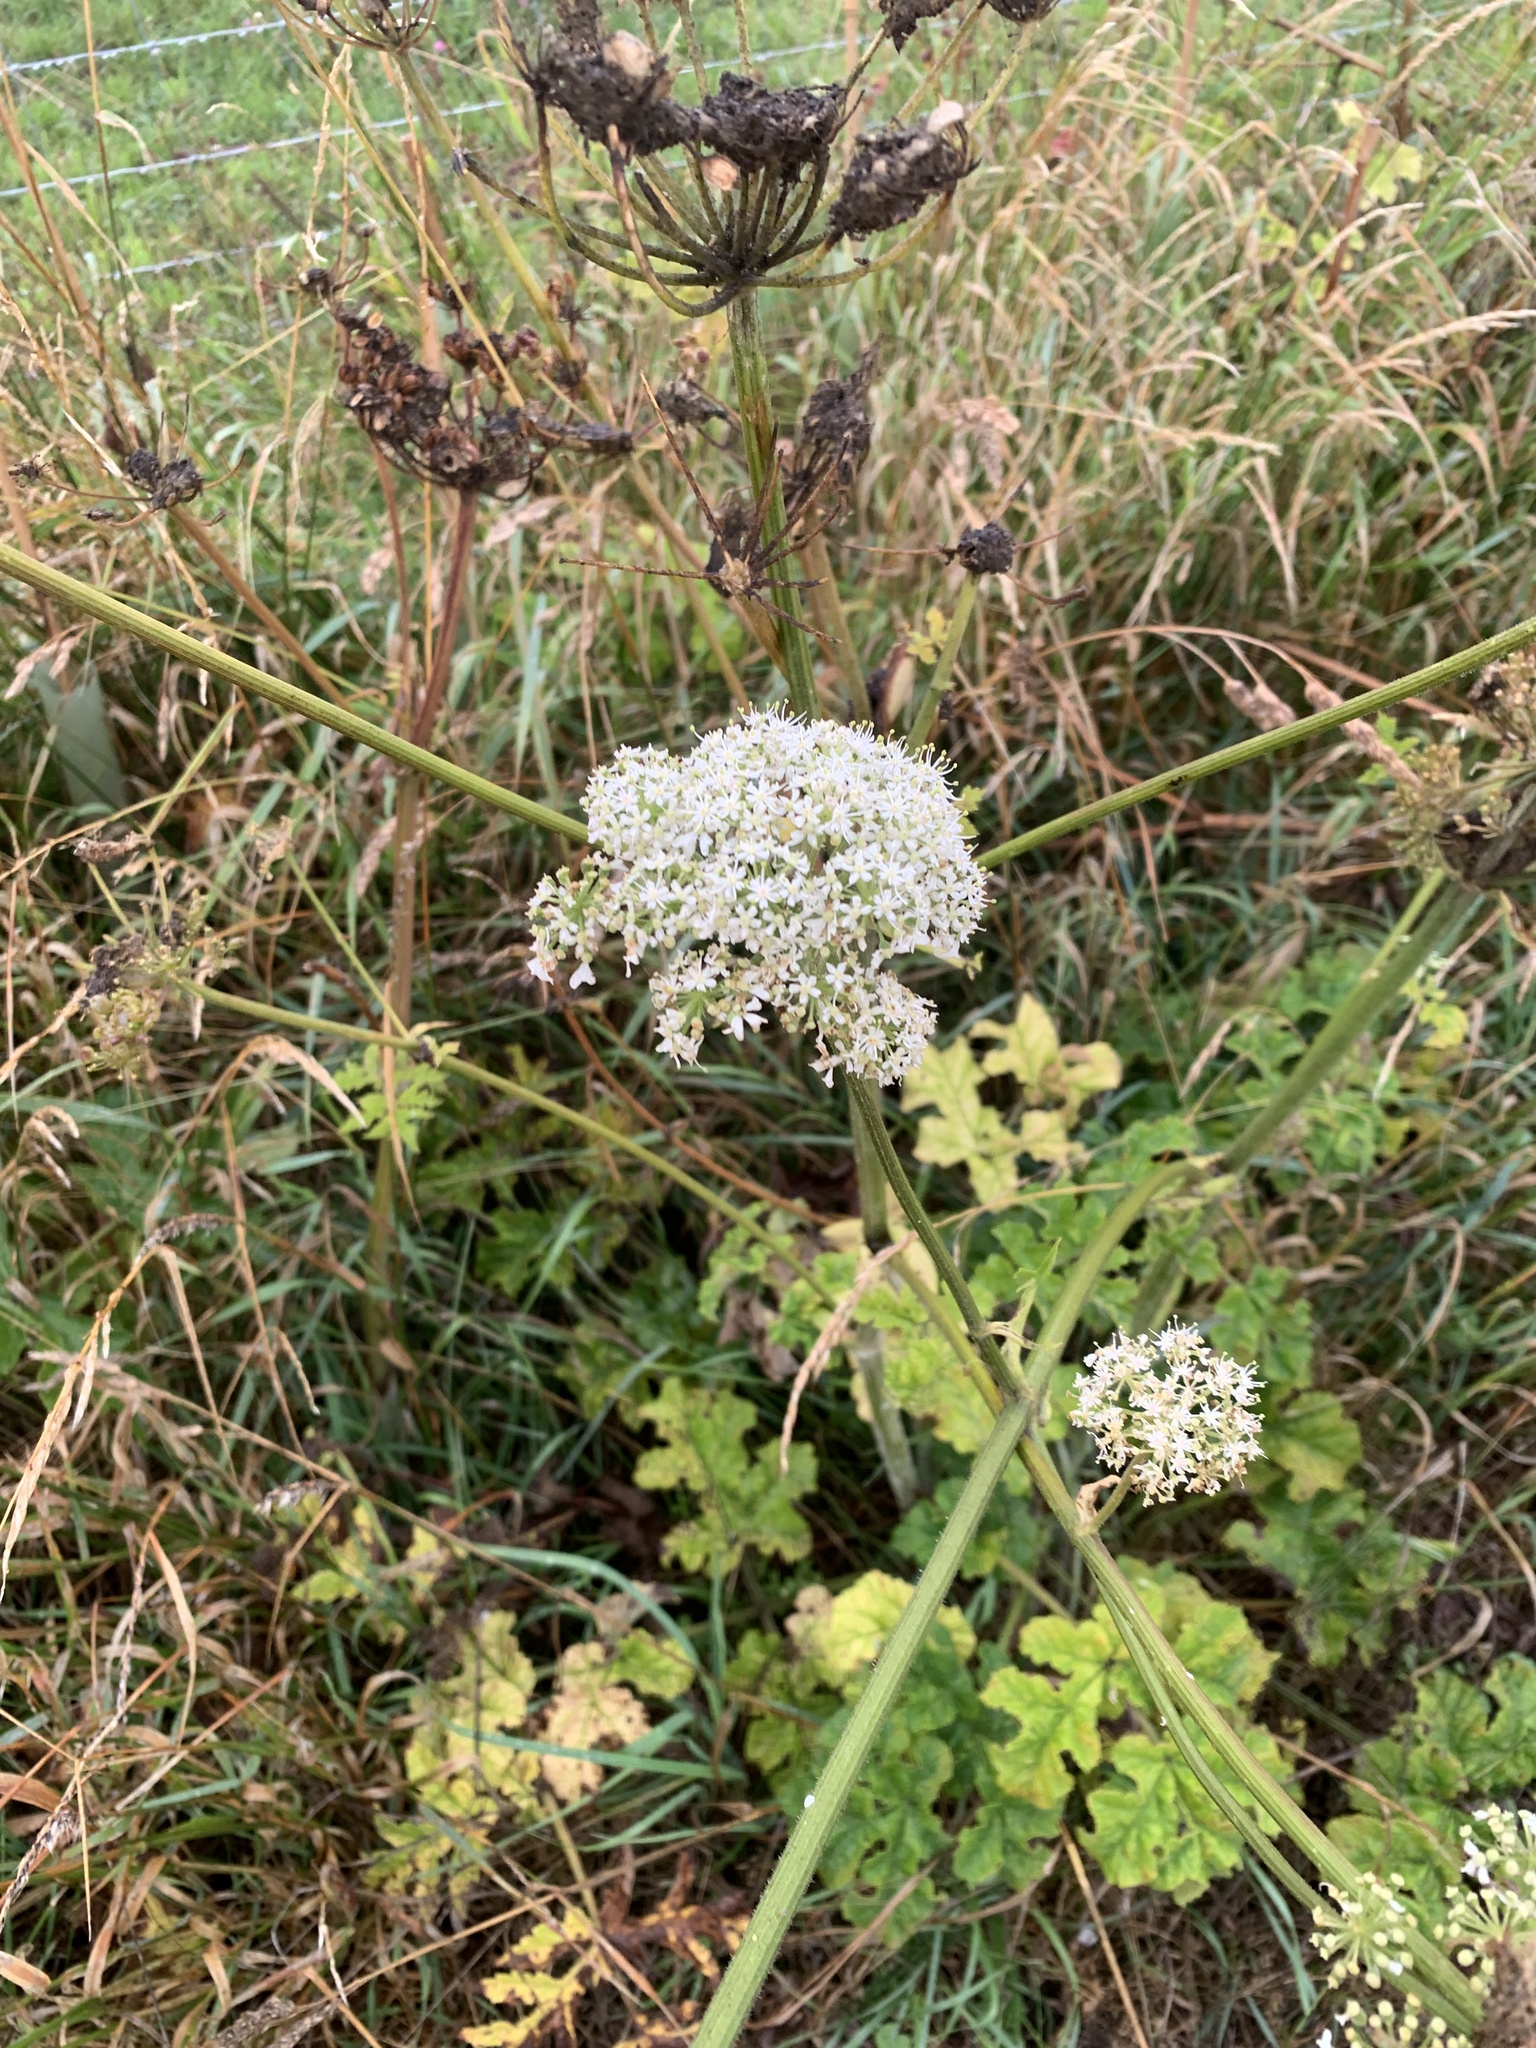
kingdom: Plantae
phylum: Tracheophyta
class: Magnoliopsida
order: Apiales
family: Apiaceae
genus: Heracleum
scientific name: Heracleum sphondylium
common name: Hogweed
